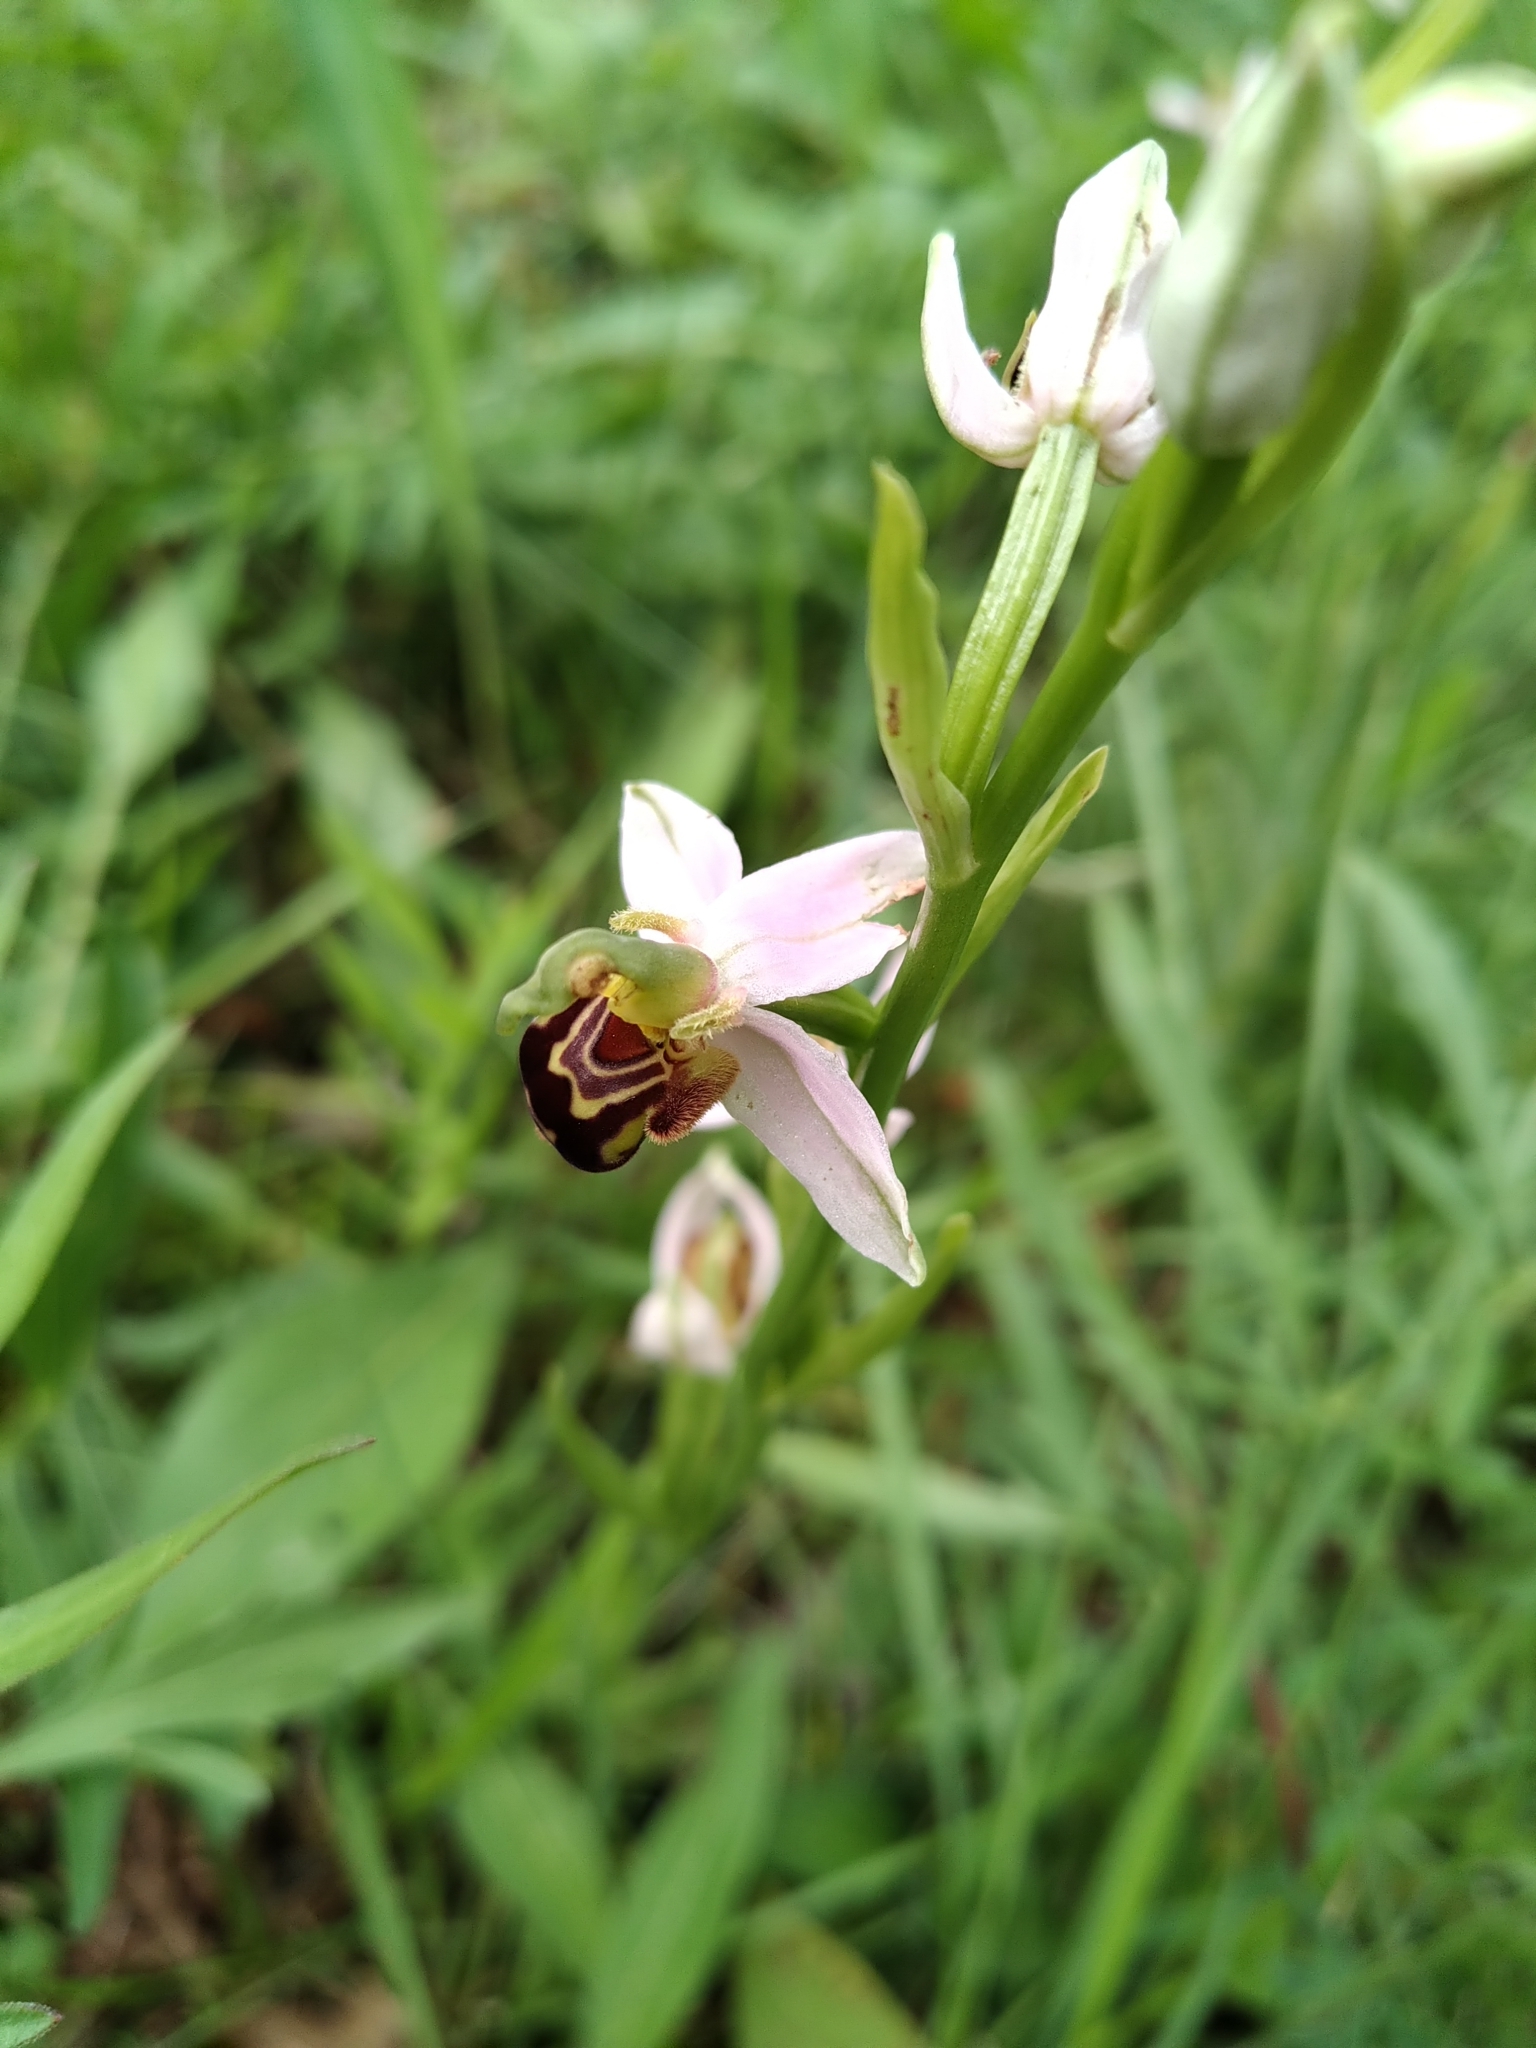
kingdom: Plantae
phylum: Tracheophyta
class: Liliopsida
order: Asparagales
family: Orchidaceae
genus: Ophrys
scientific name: Ophrys apifera
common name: Bee orchid
